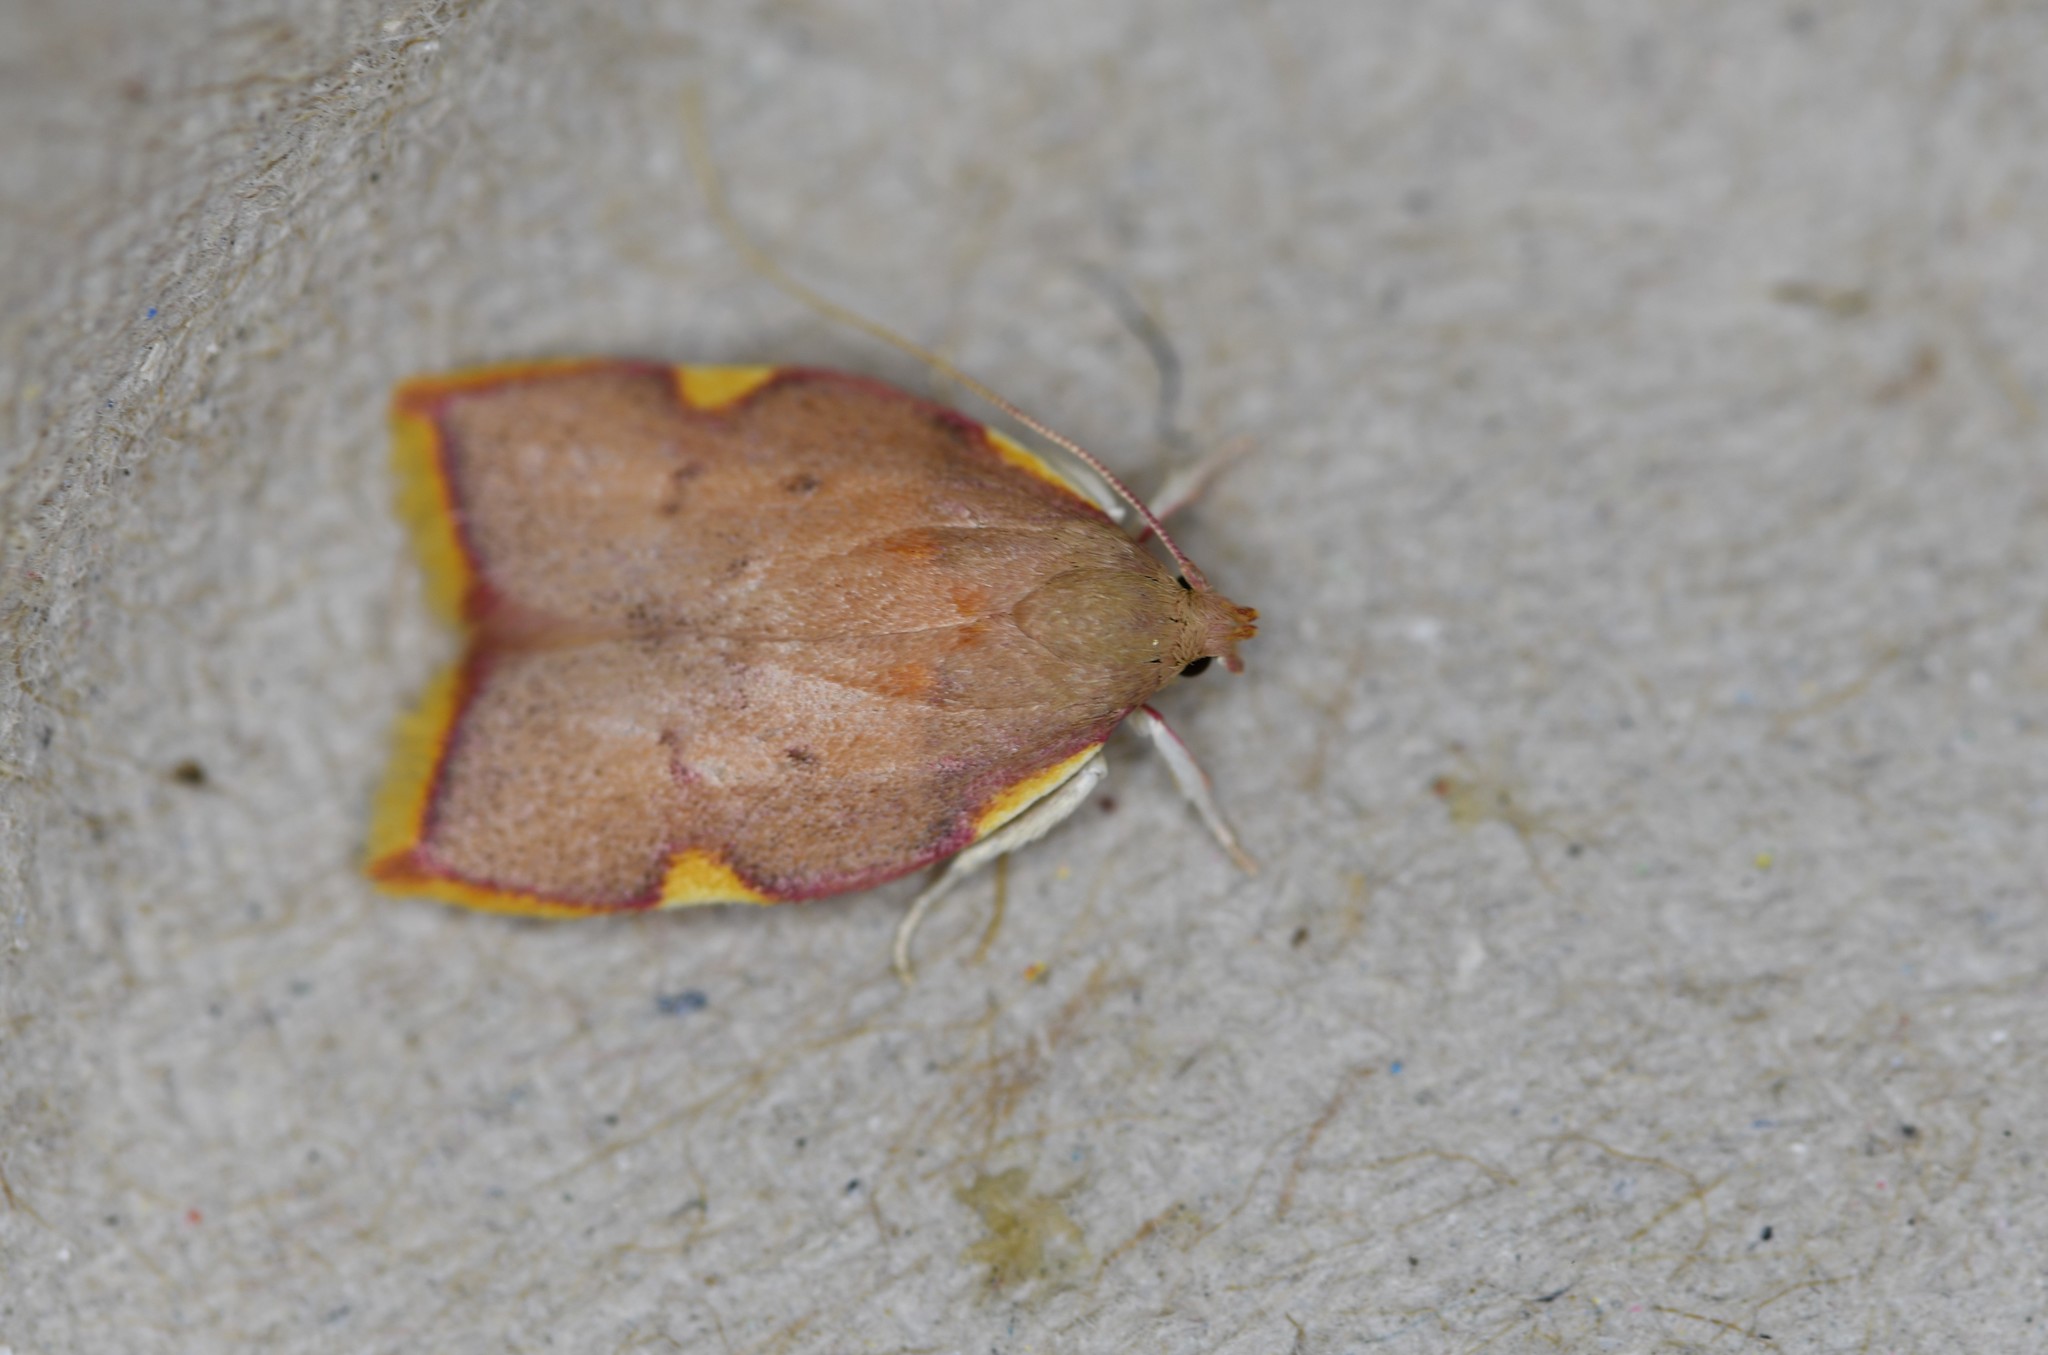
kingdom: Animalia
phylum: Arthropoda
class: Insecta
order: Lepidoptera
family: Peleopodidae
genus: Carcina
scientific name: Carcina quercana
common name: Moth
